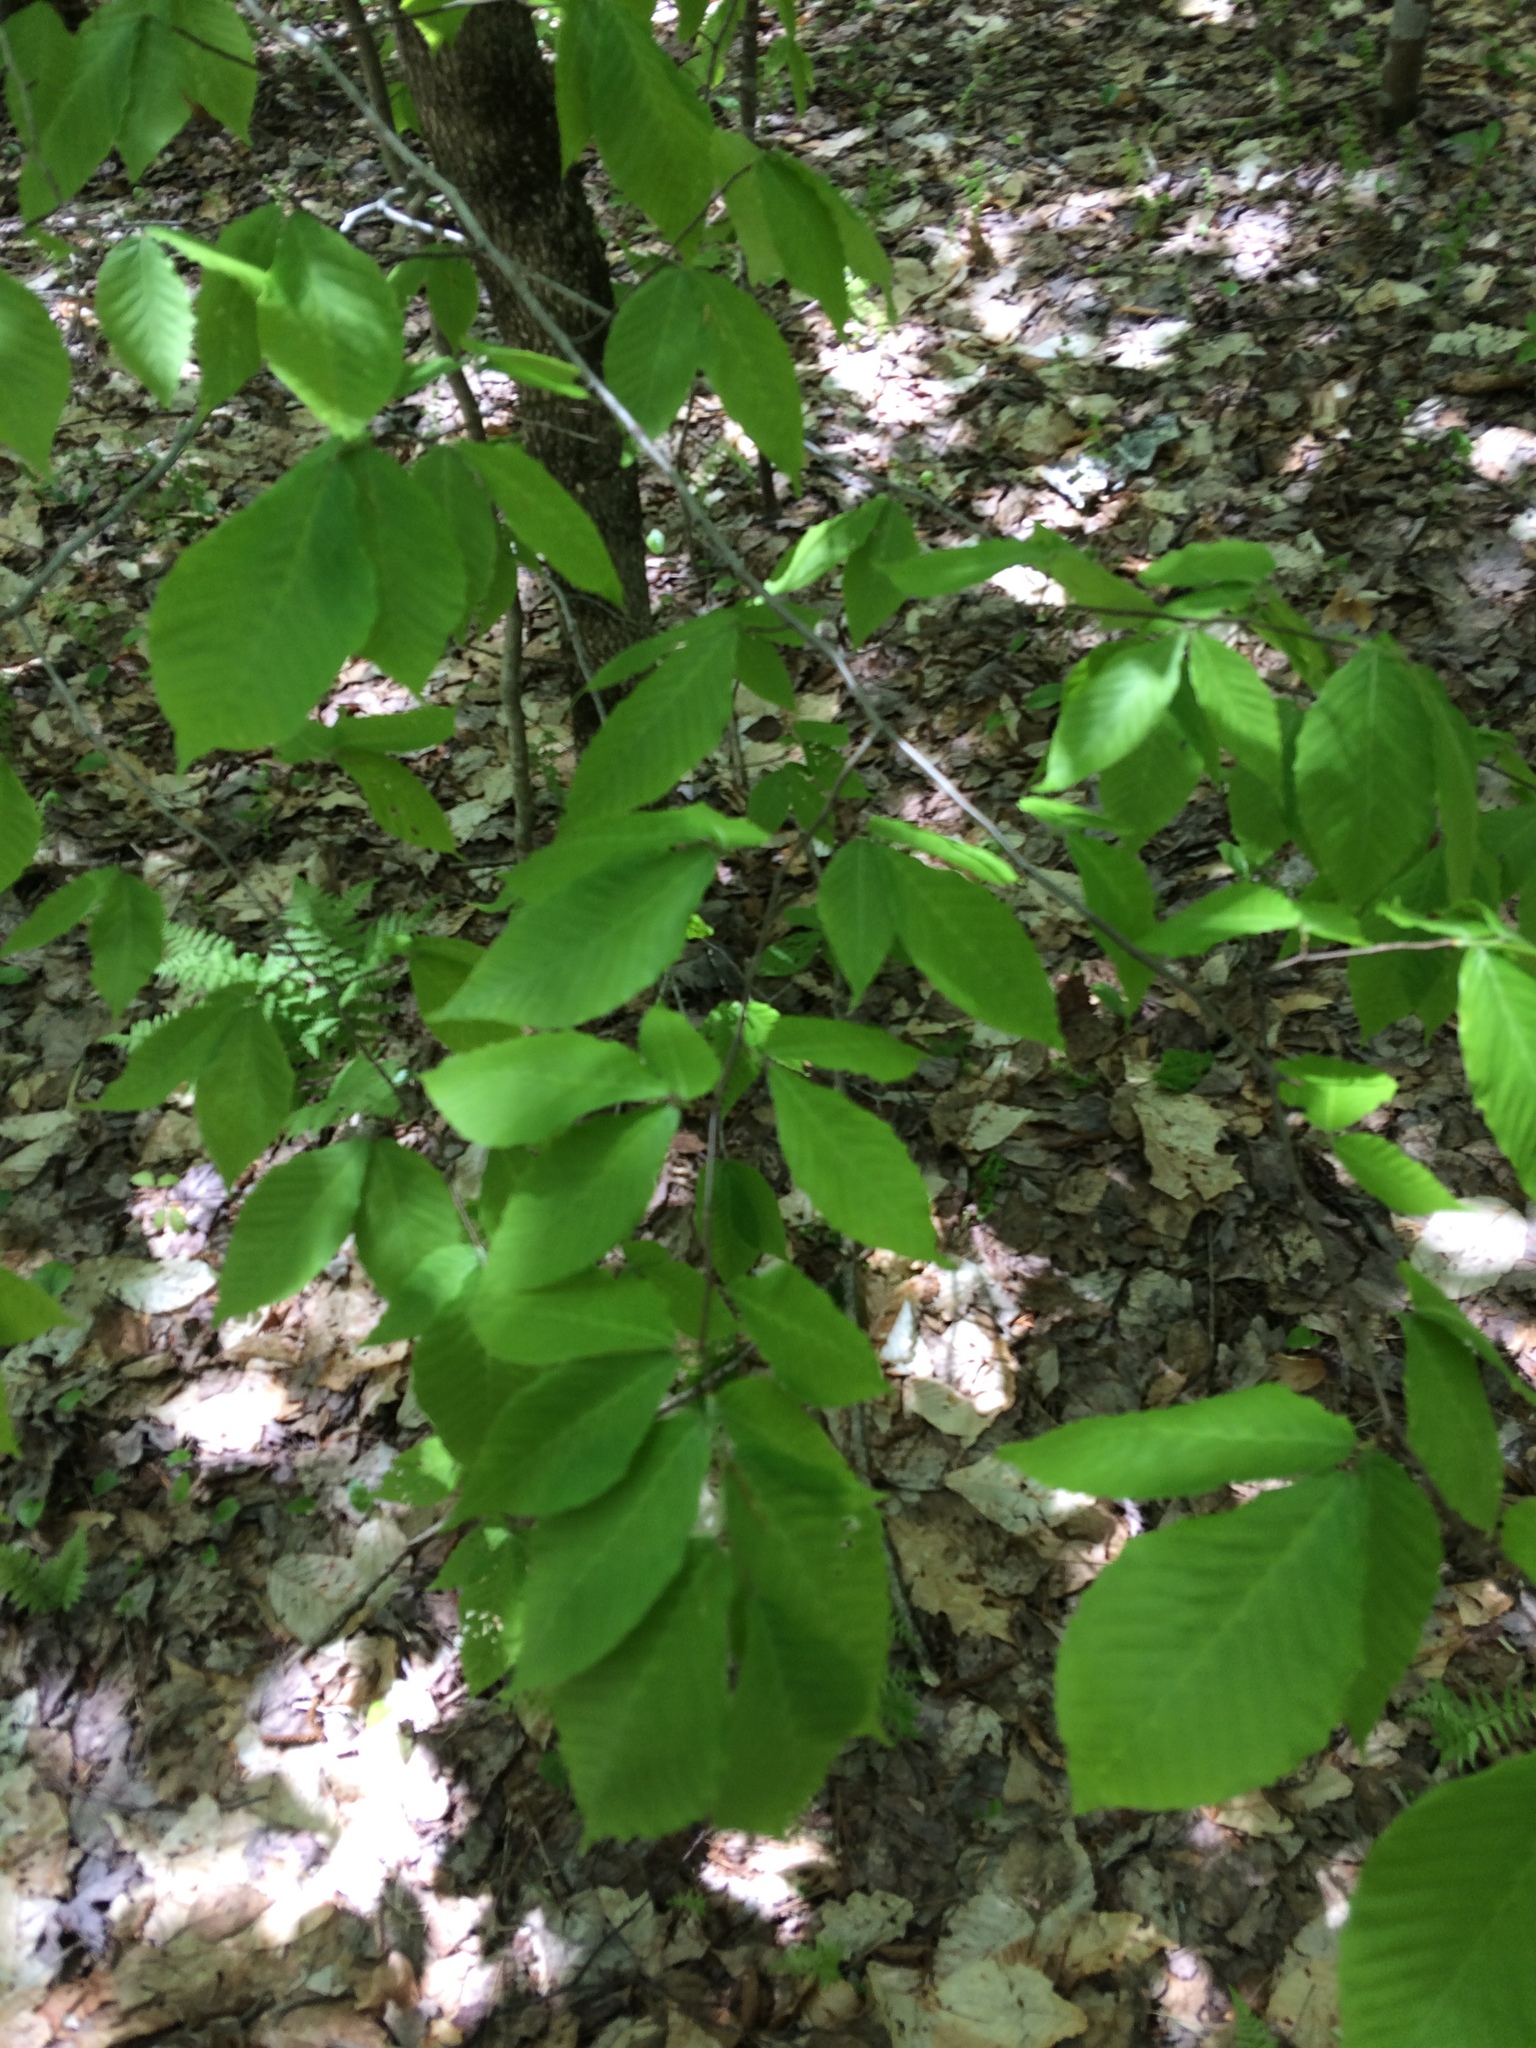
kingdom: Plantae
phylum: Tracheophyta
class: Magnoliopsida
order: Fagales
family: Fagaceae
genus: Fagus
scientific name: Fagus grandifolia
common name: American beech
